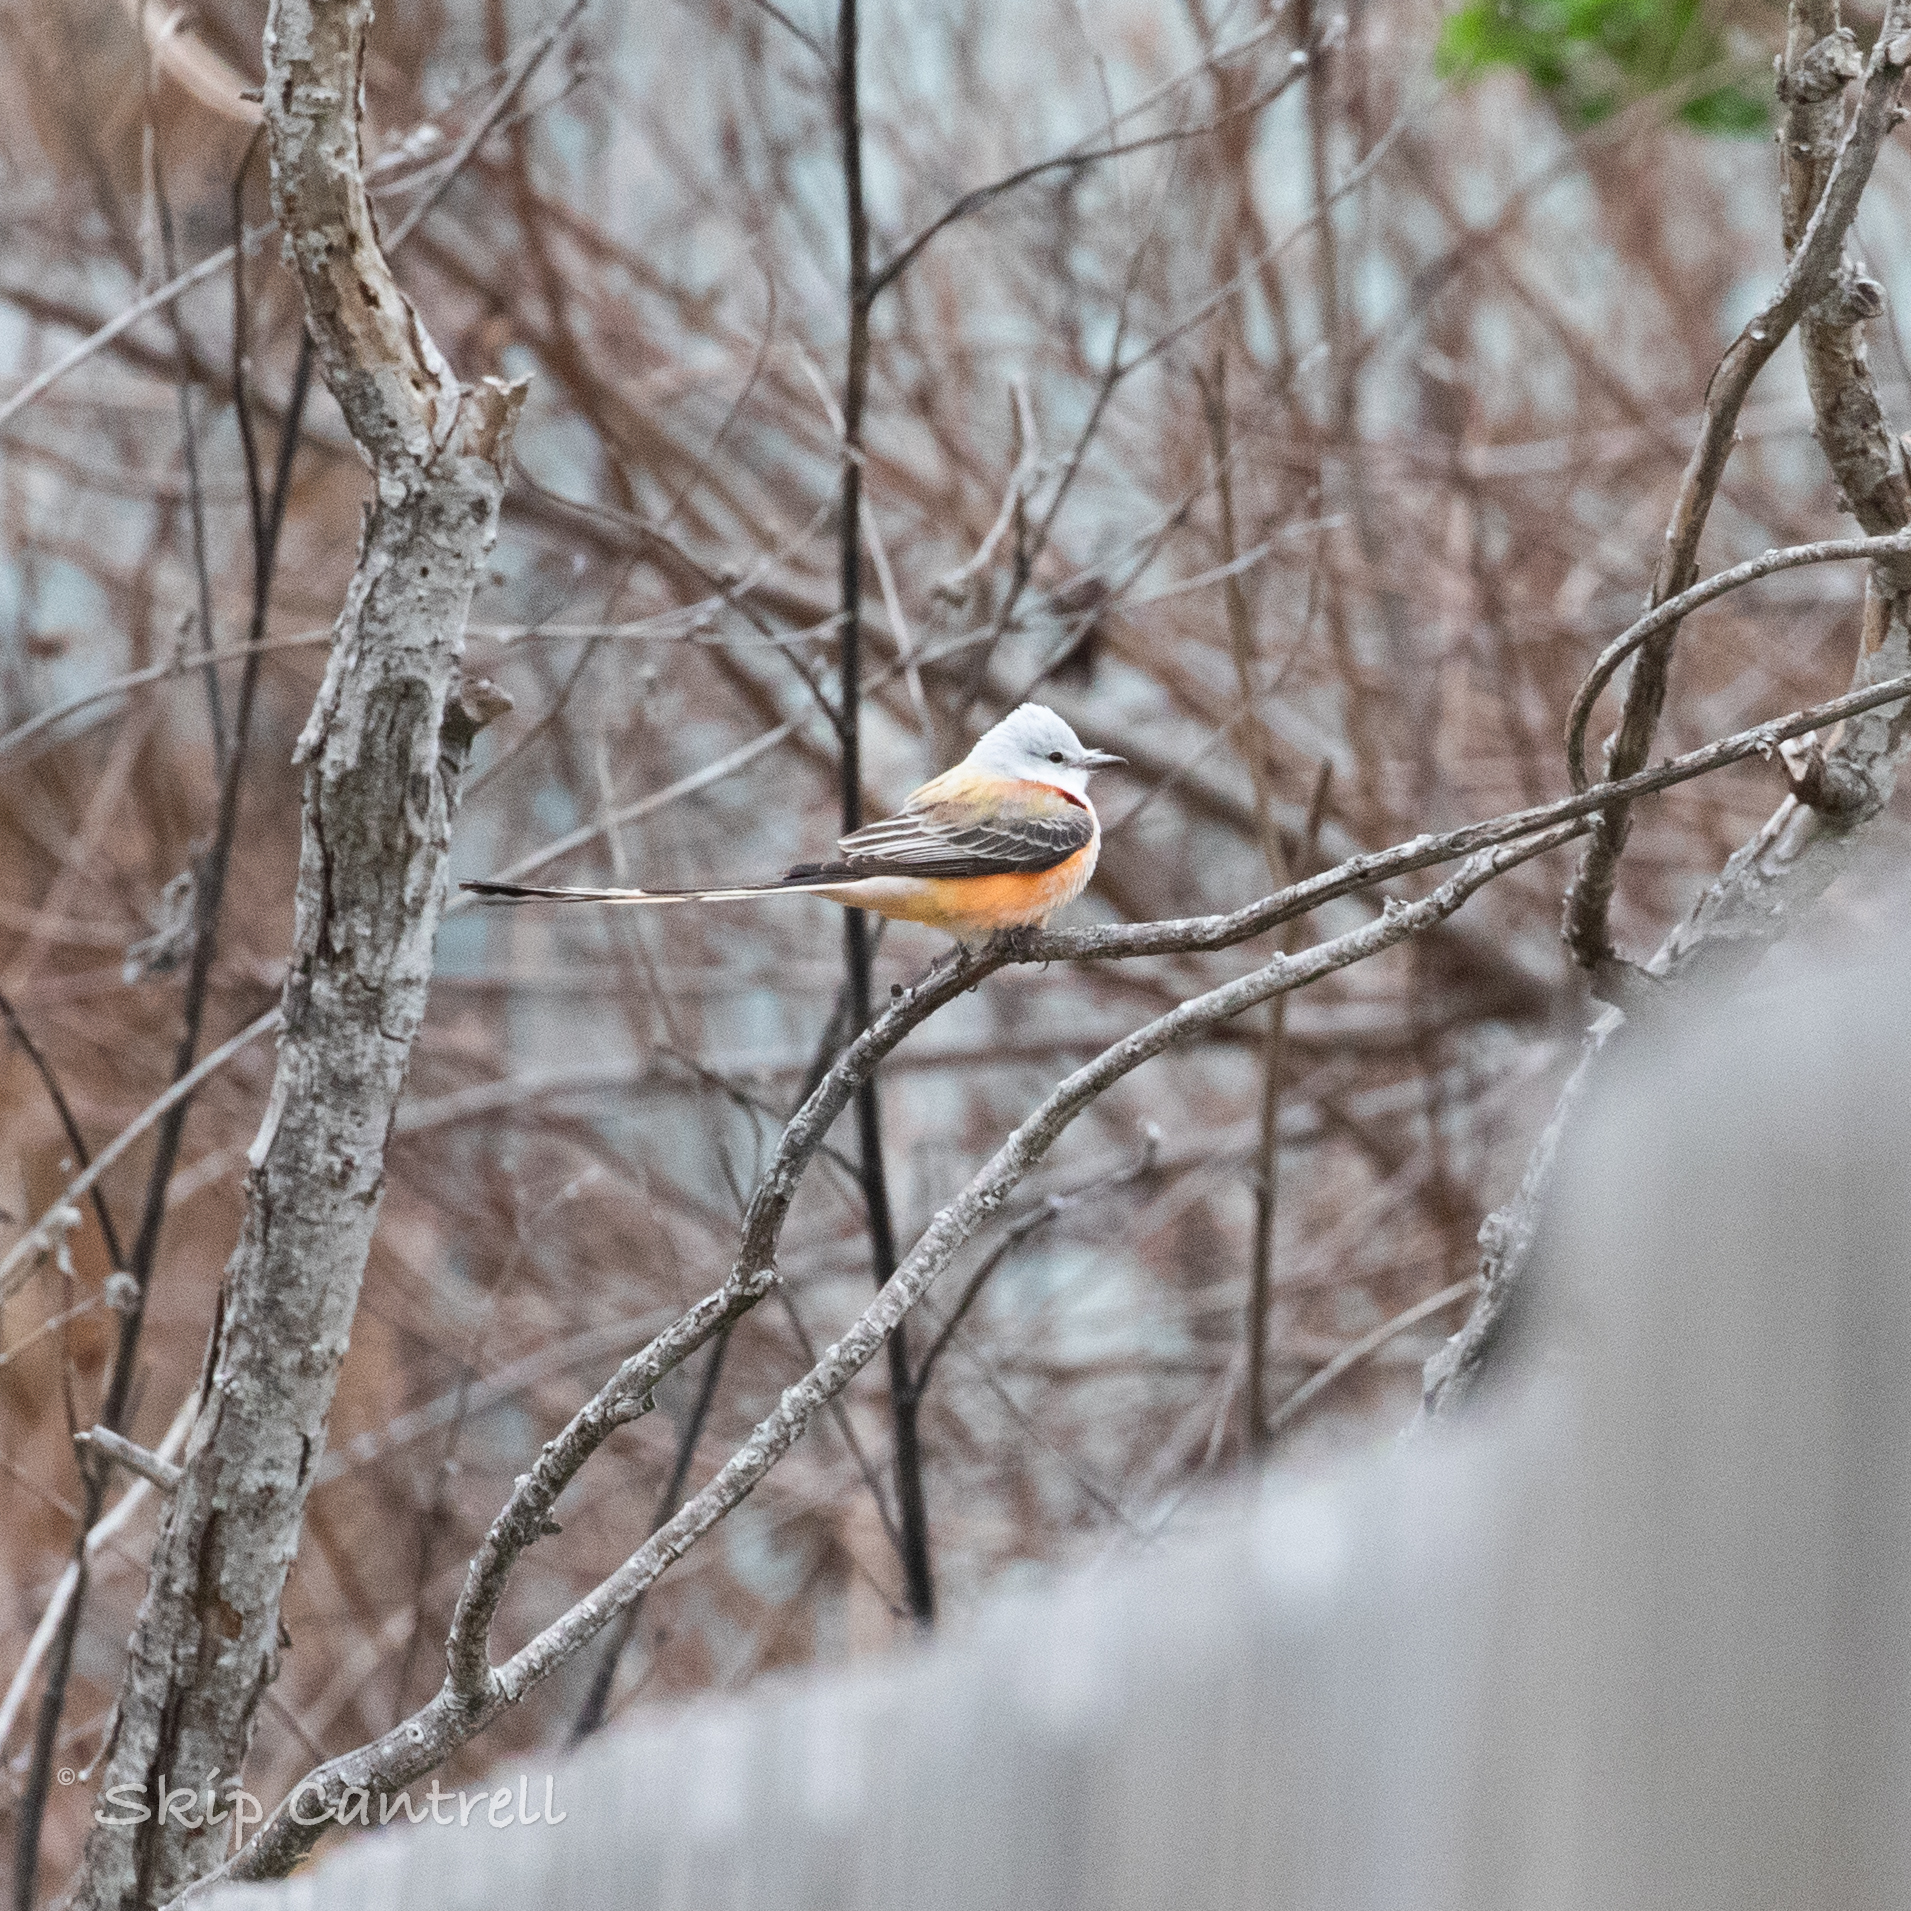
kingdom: Animalia
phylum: Chordata
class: Aves
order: Passeriformes
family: Tyrannidae
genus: Tyrannus
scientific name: Tyrannus forficatus
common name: Scissor-tailed flycatcher
